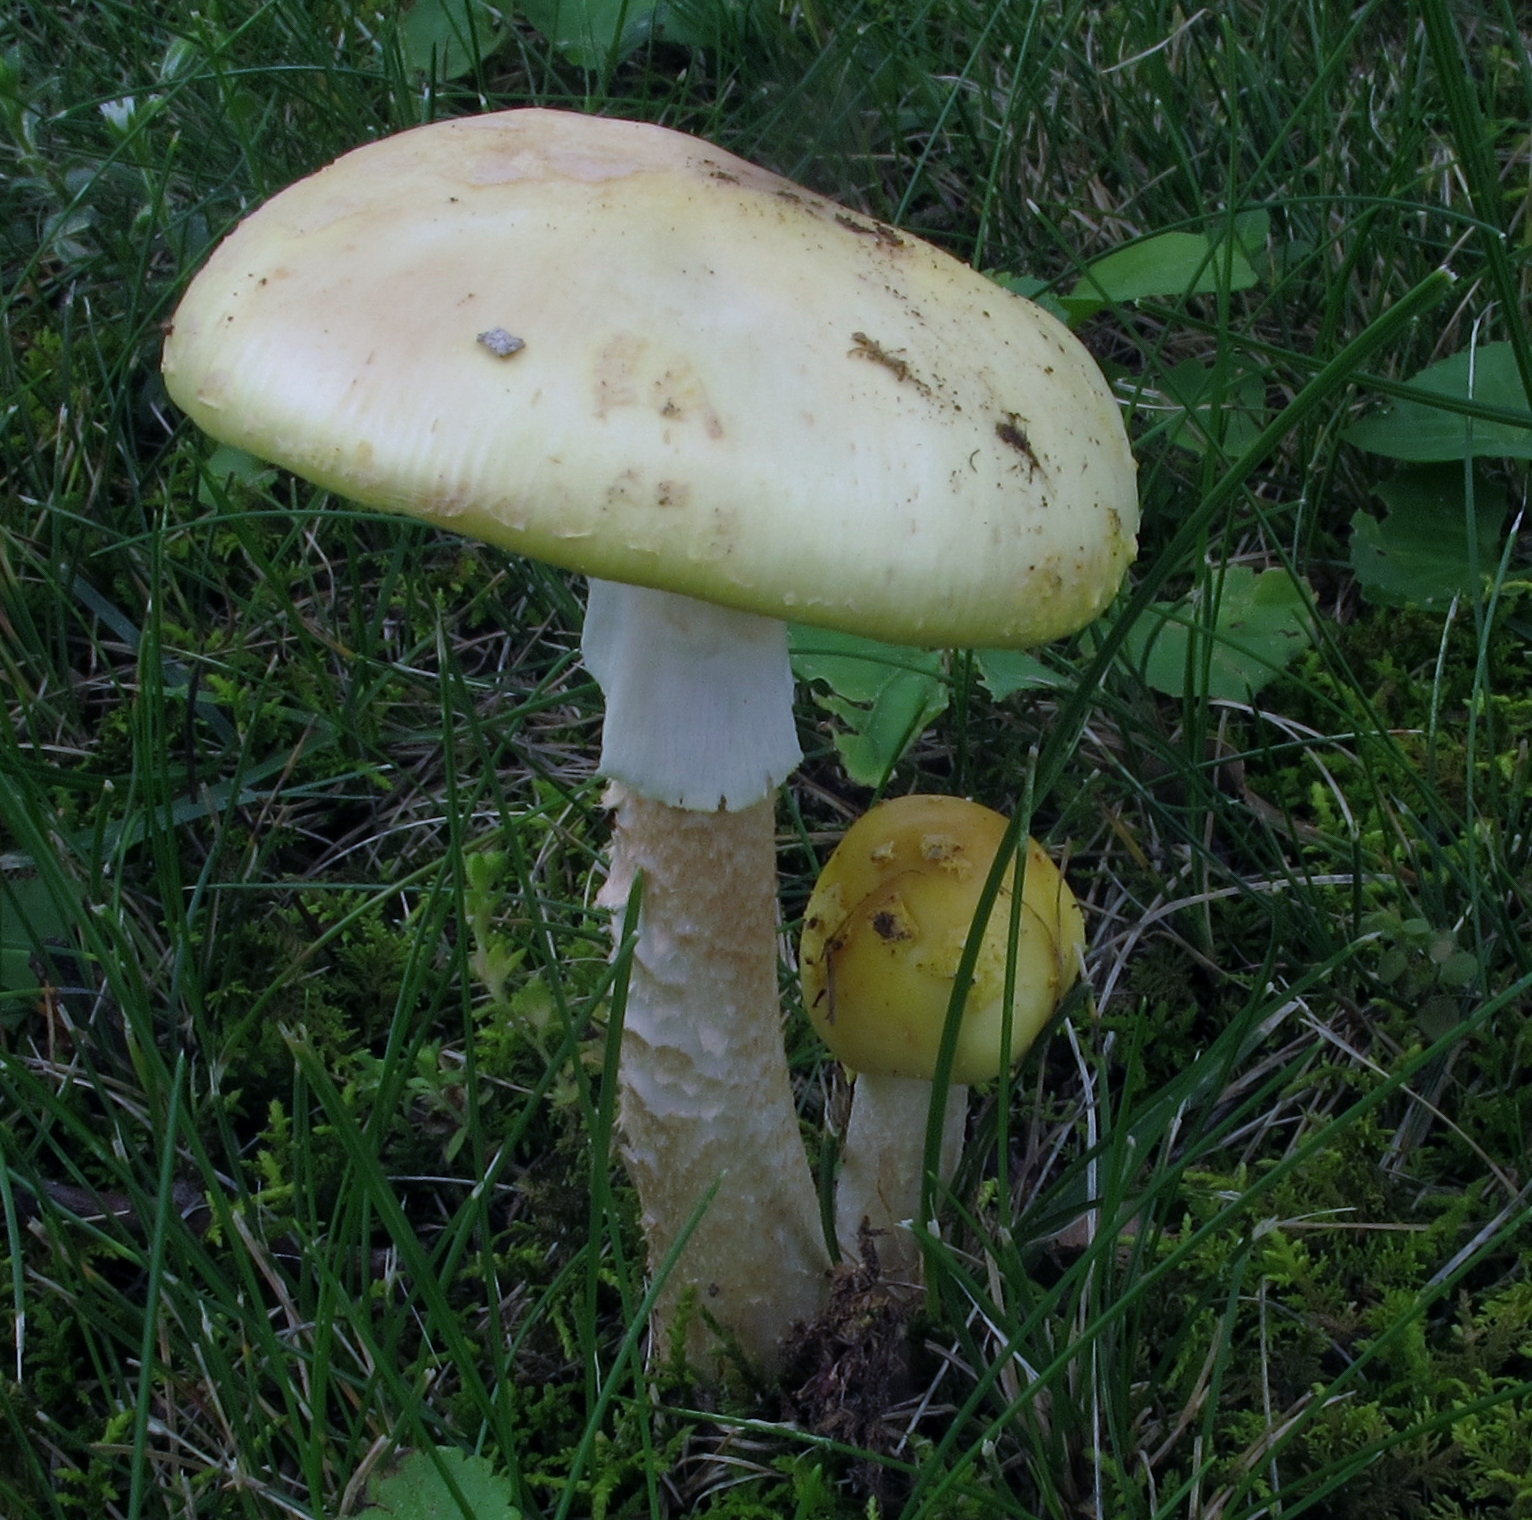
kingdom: Fungi
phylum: Basidiomycota
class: Agaricomycetes
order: Agaricales
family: Amanitaceae
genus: Amanita
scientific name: Amanita flavorubens
